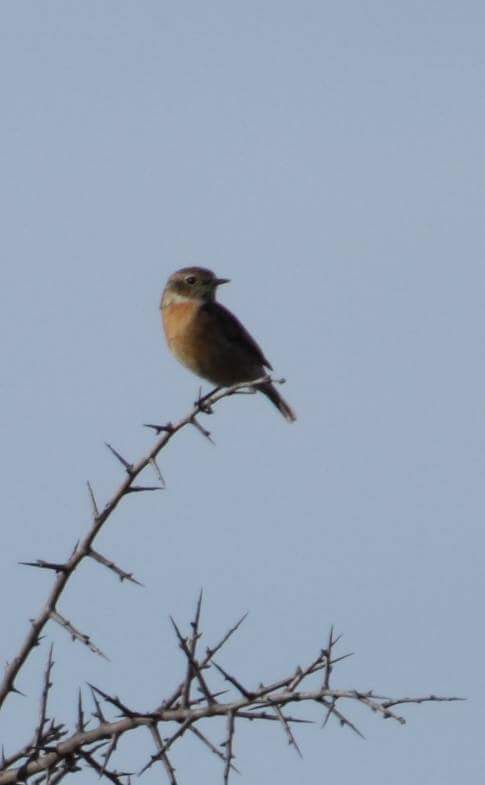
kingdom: Animalia
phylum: Chordata
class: Aves
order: Passeriformes
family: Muscicapidae
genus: Saxicola
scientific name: Saxicola rubicola
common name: European stonechat
